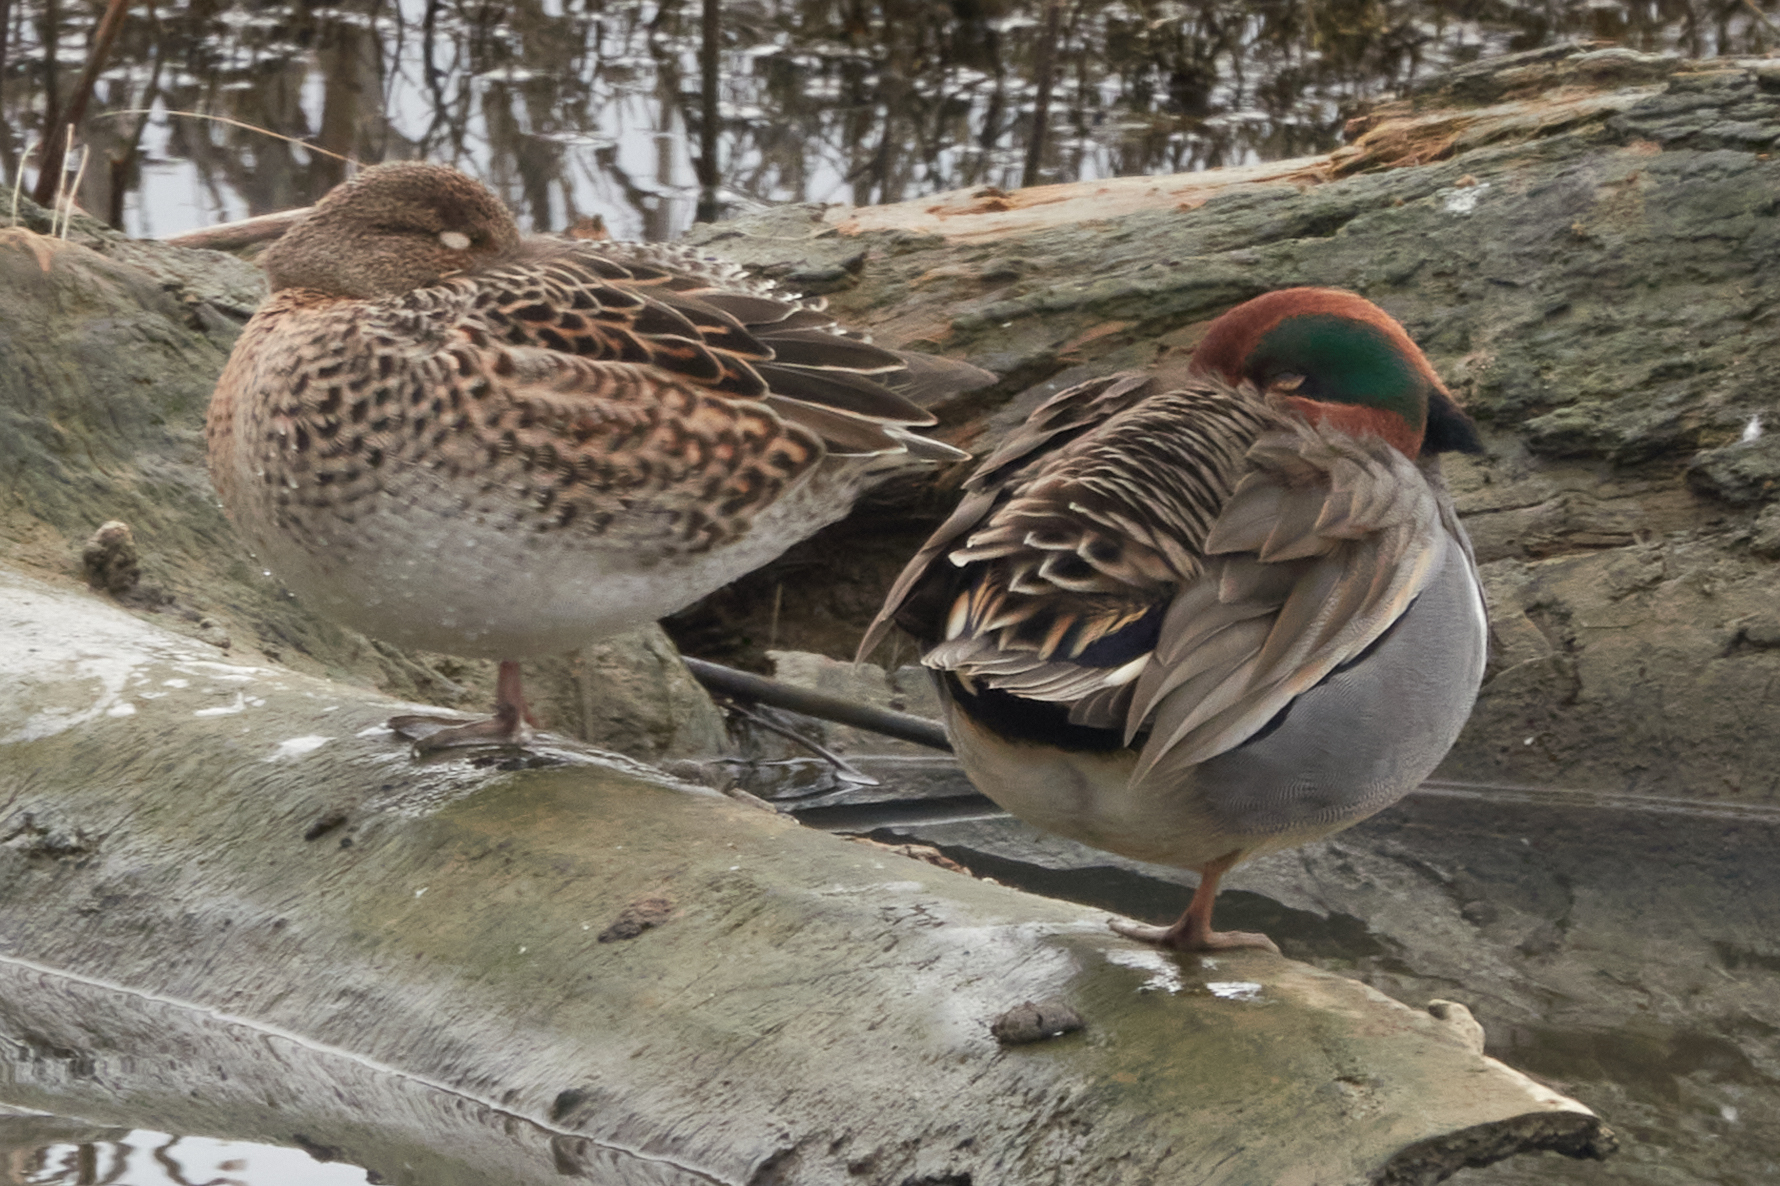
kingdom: Animalia
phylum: Chordata
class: Aves
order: Anseriformes
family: Anatidae
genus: Anas
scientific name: Anas crecca
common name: Eurasian teal
